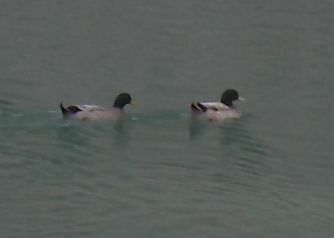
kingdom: Animalia
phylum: Chordata
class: Aves
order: Anseriformes
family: Anatidae
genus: Anas
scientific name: Anas platyrhynchos
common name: Mallard
